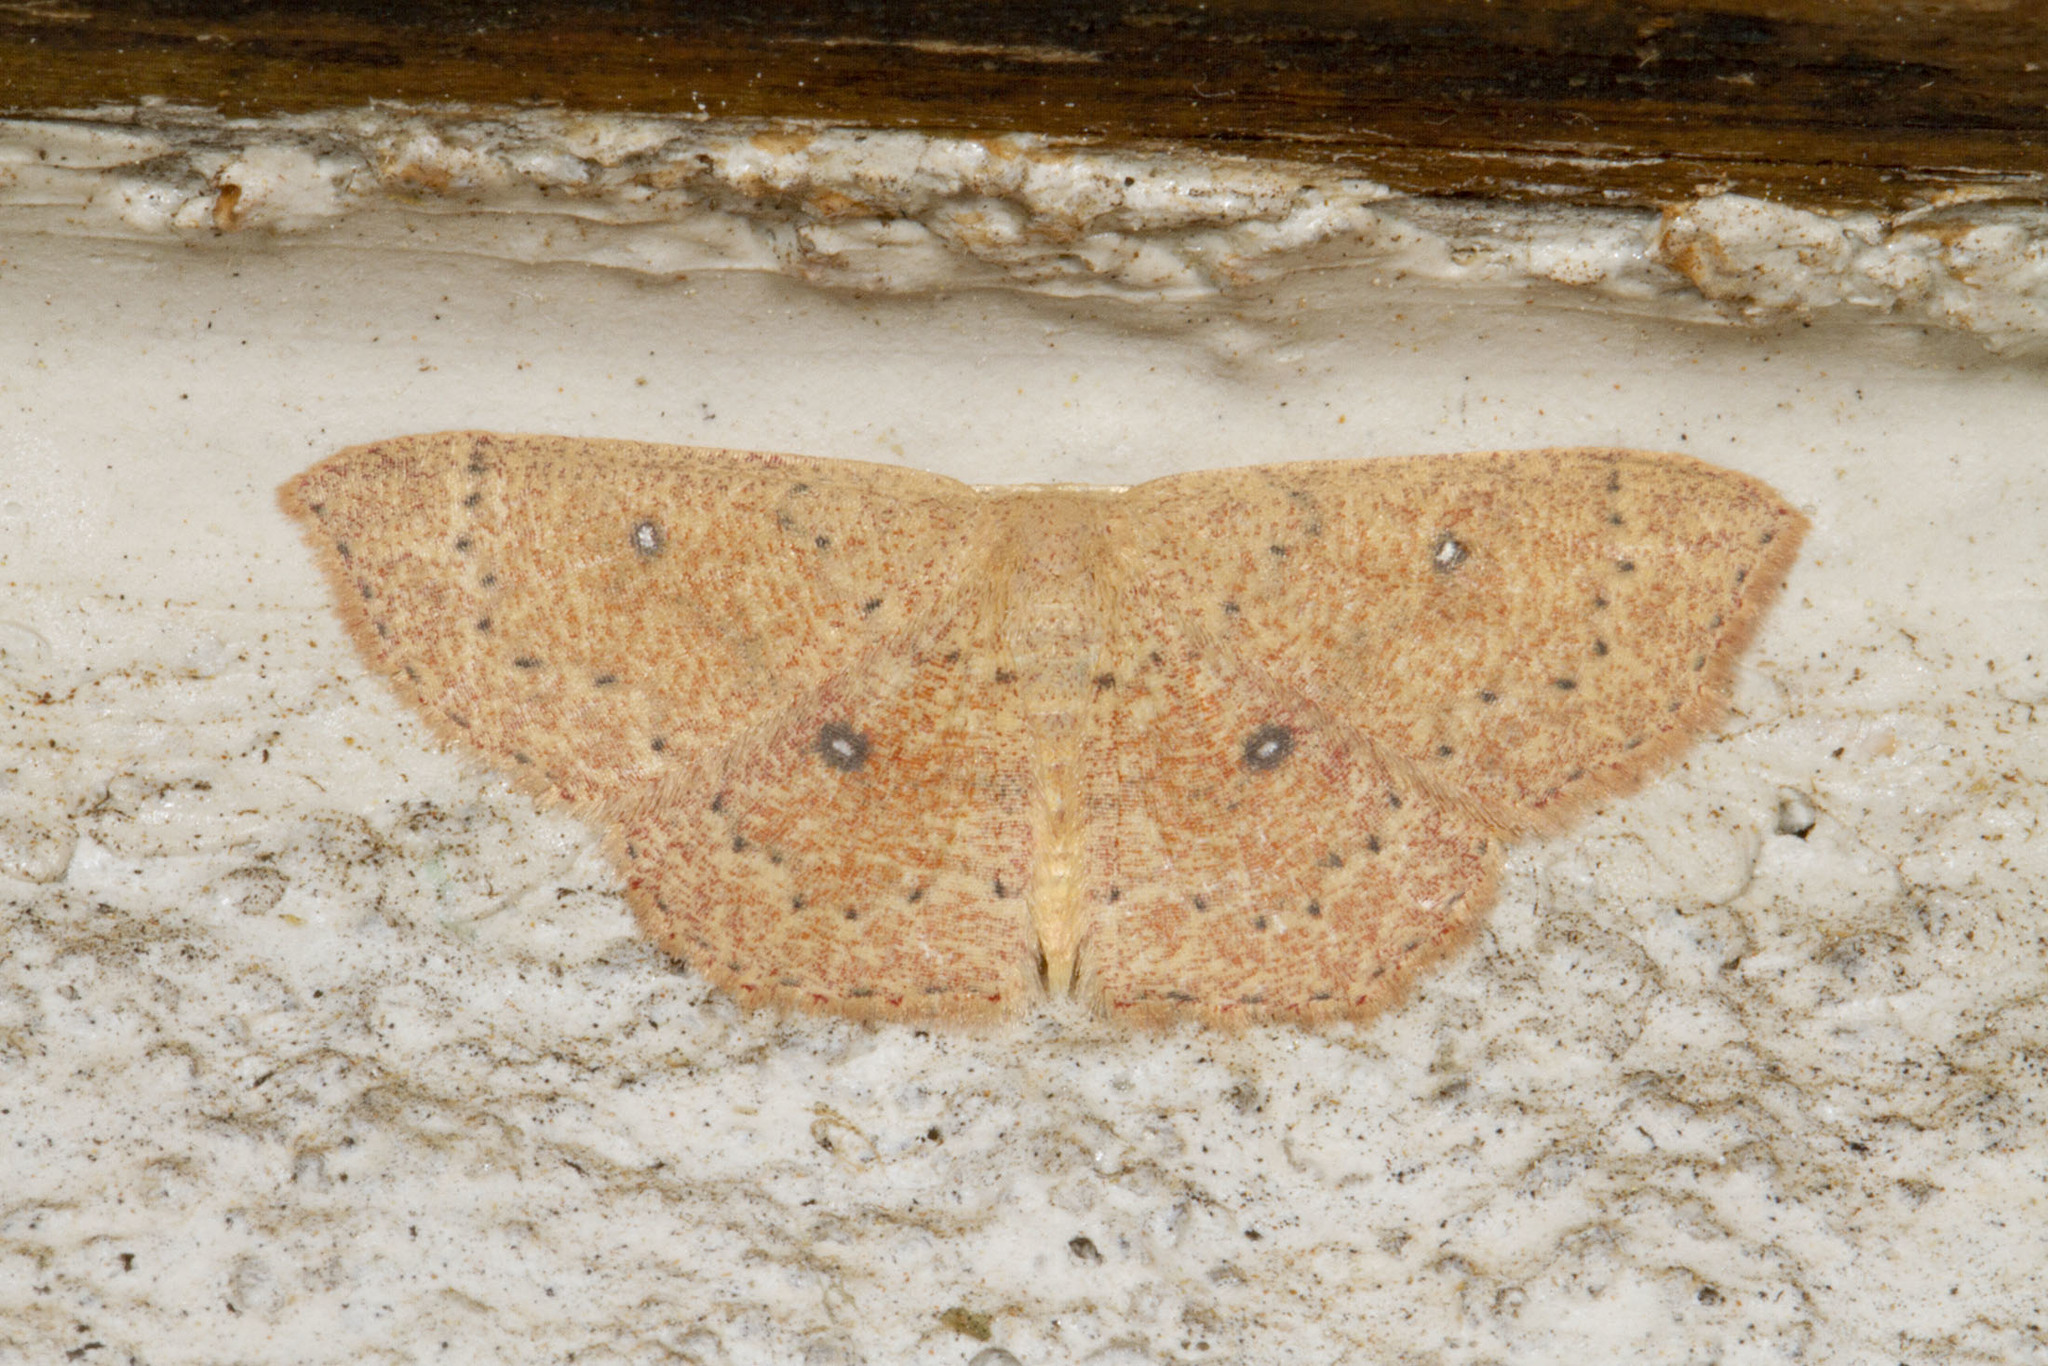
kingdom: Animalia
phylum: Arthropoda
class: Insecta
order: Lepidoptera
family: Geometridae
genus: Cyclophora
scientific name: Cyclophora packardi
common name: Packard's wave
